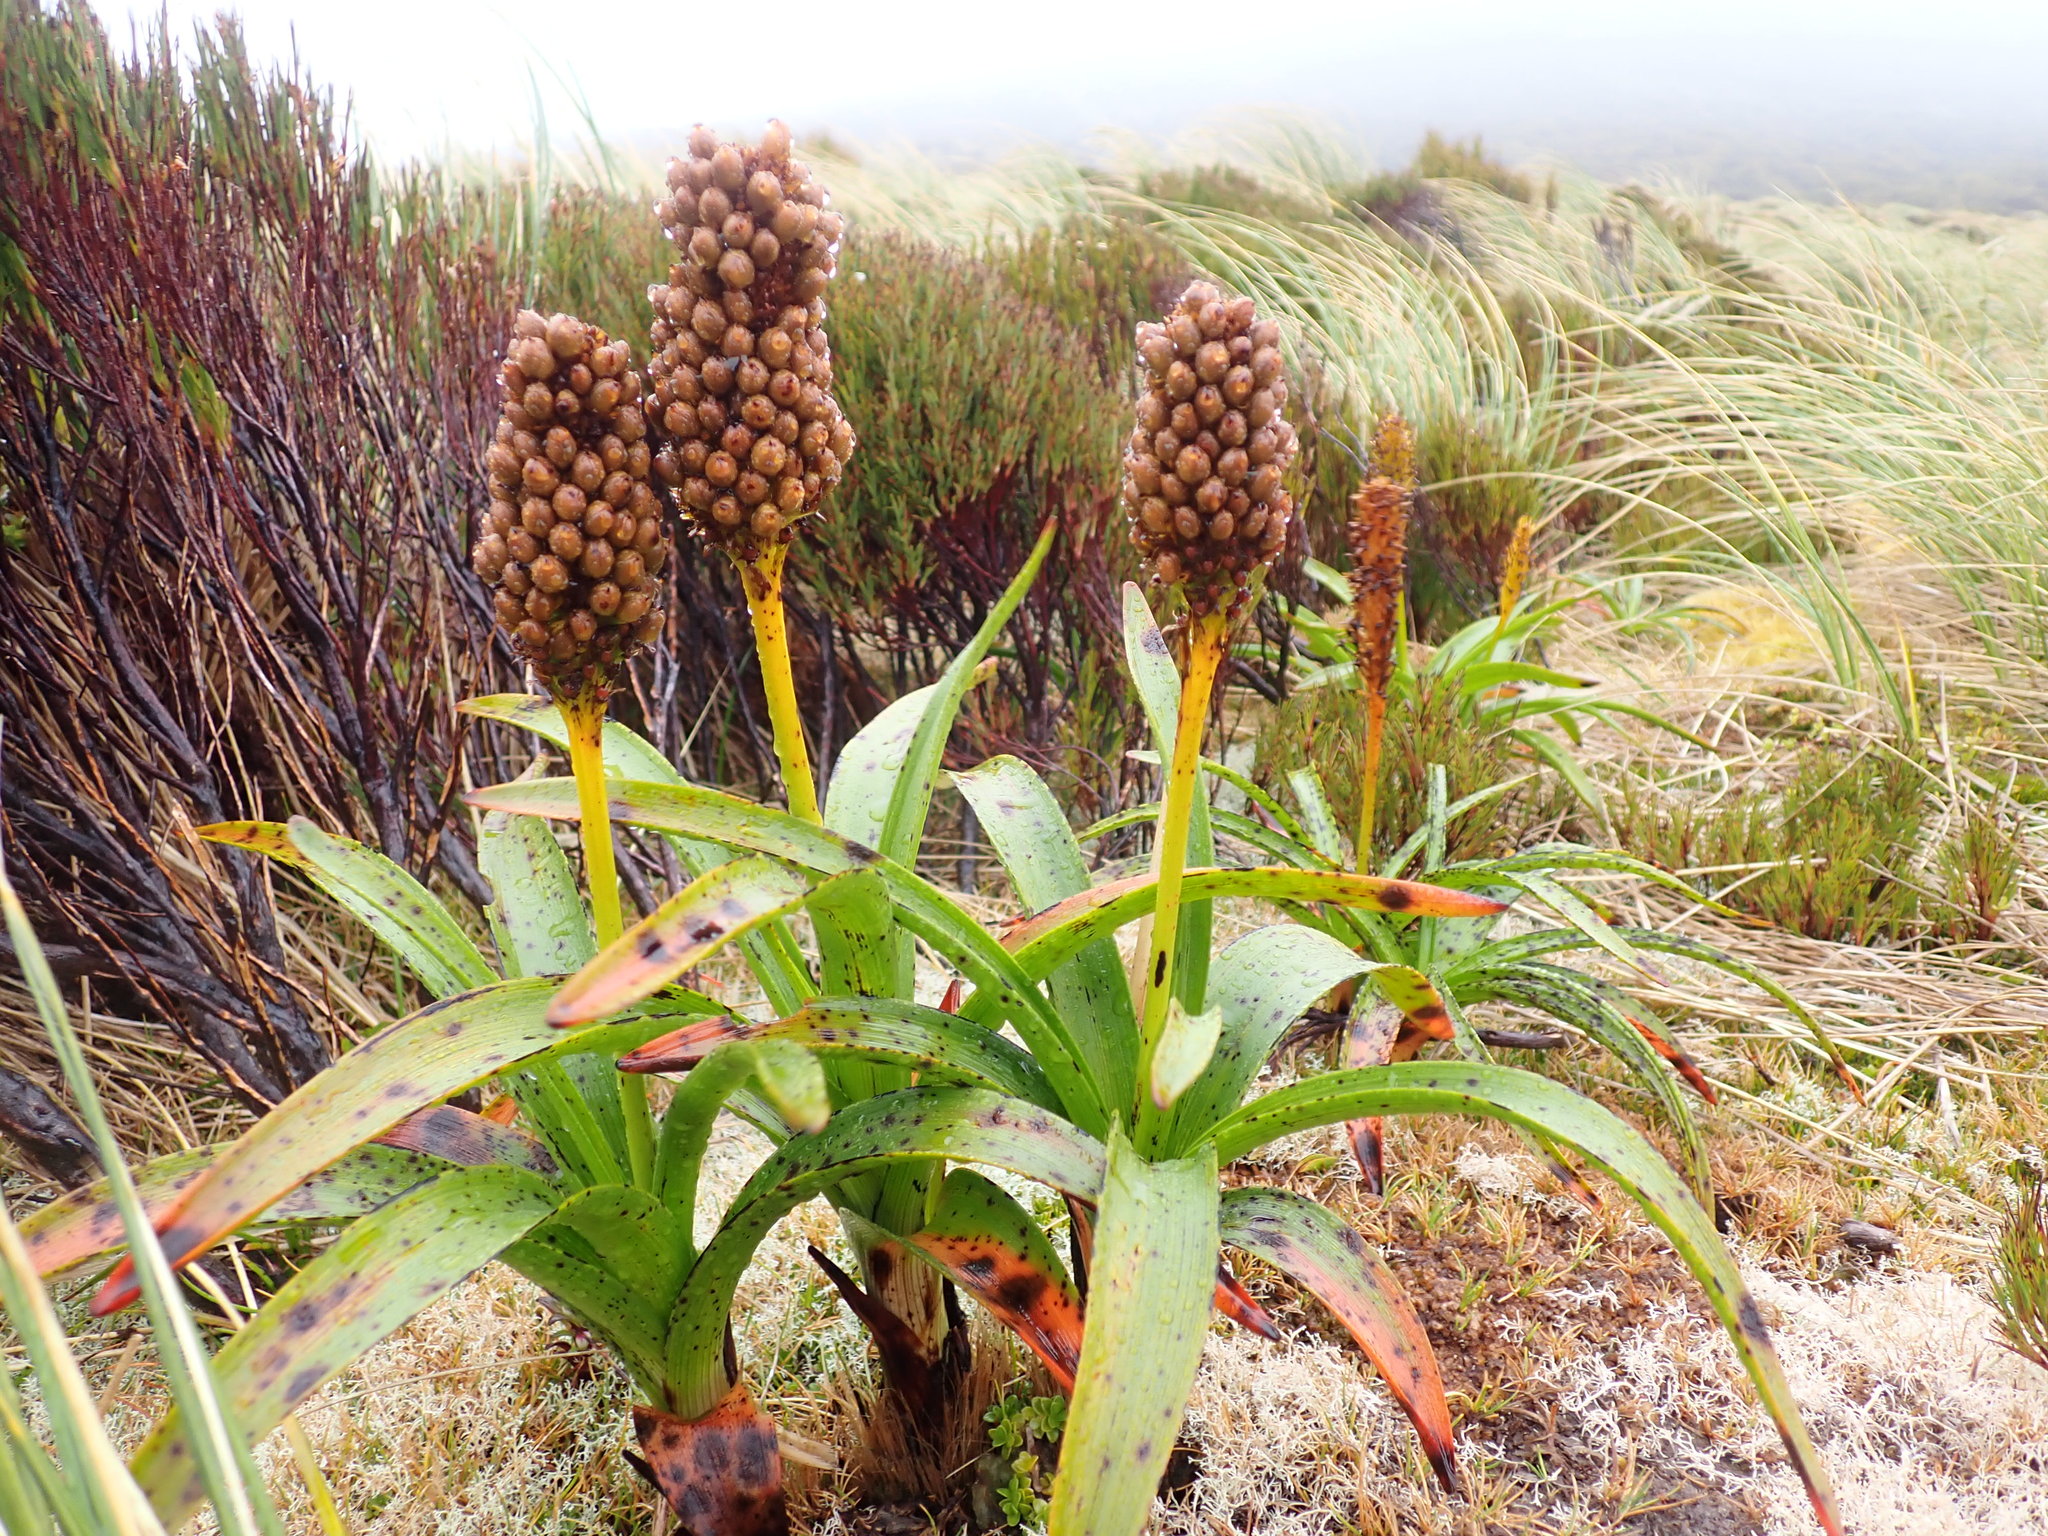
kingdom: Plantae
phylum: Tracheophyta
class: Liliopsida
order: Asparagales
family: Asphodelaceae
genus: Bulbinella
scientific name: Bulbinella rossii
